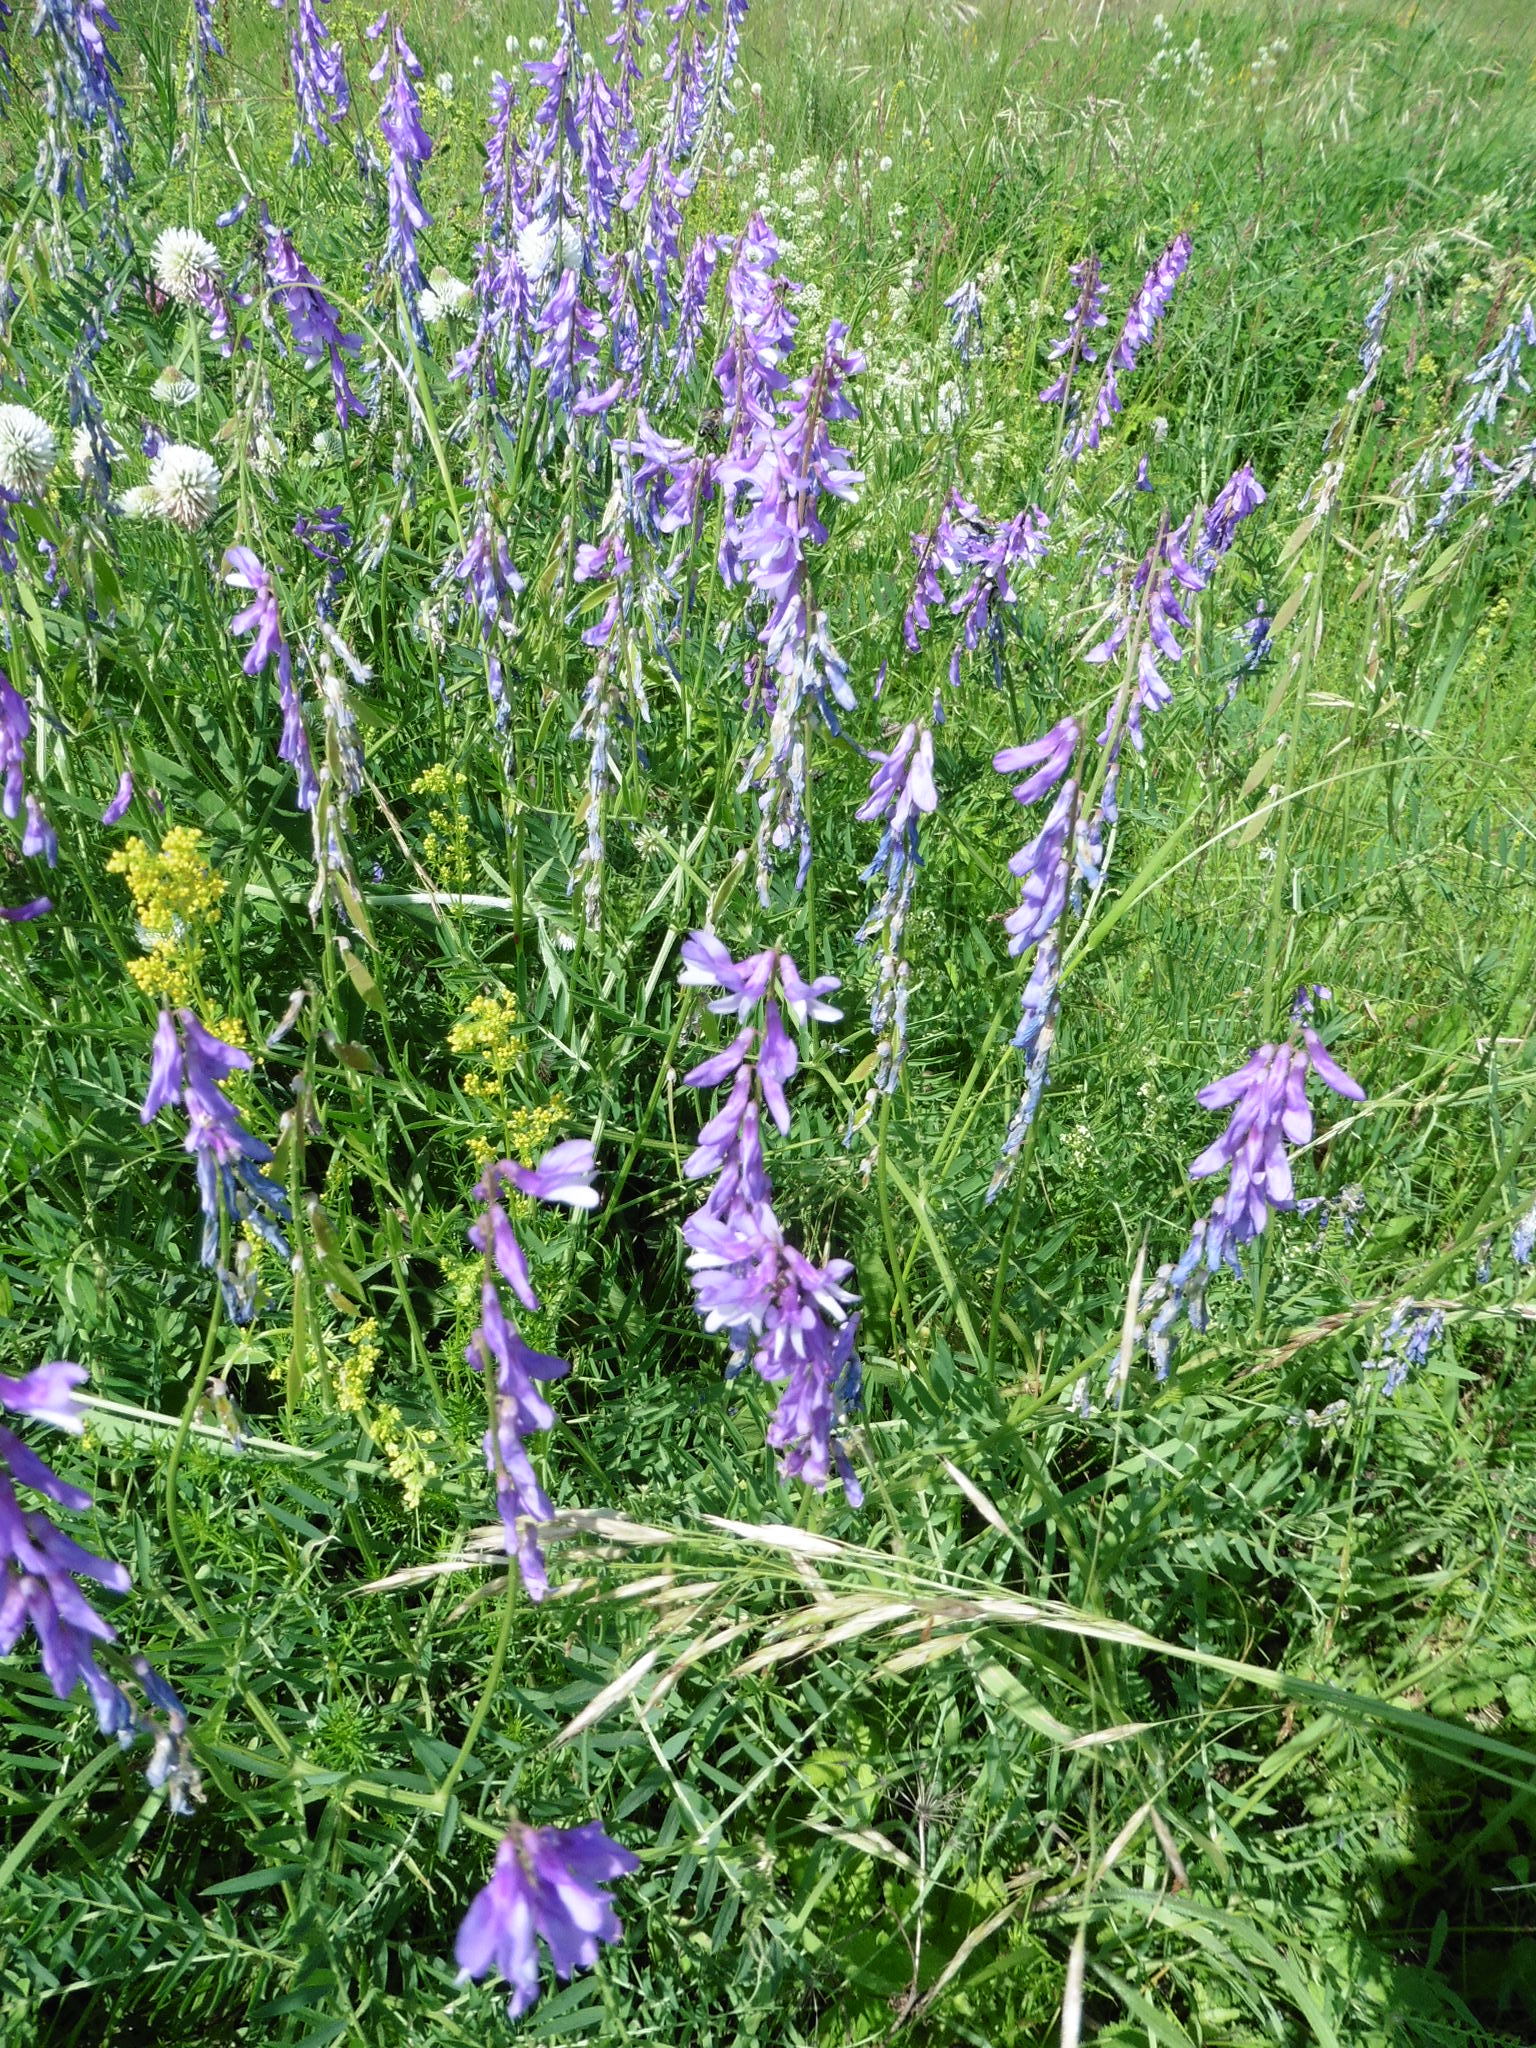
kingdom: Plantae
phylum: Tracheophyta
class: Magnoliopsida
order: Fabales
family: Fabaceae
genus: Vicia
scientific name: Vicia tenuifolia
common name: Fine-leaved vetch
